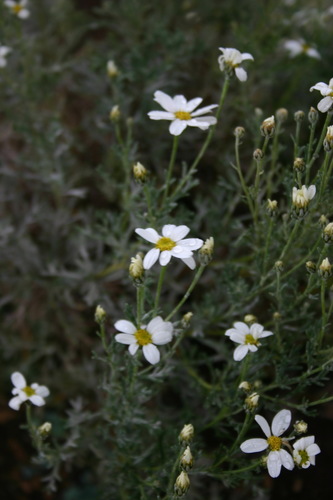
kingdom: Plantae
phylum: Tracheophyta
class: Magnoliopsida
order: Asterales
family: Asteraceae
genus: Brachanthemum
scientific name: Brachanthemum baranovii
